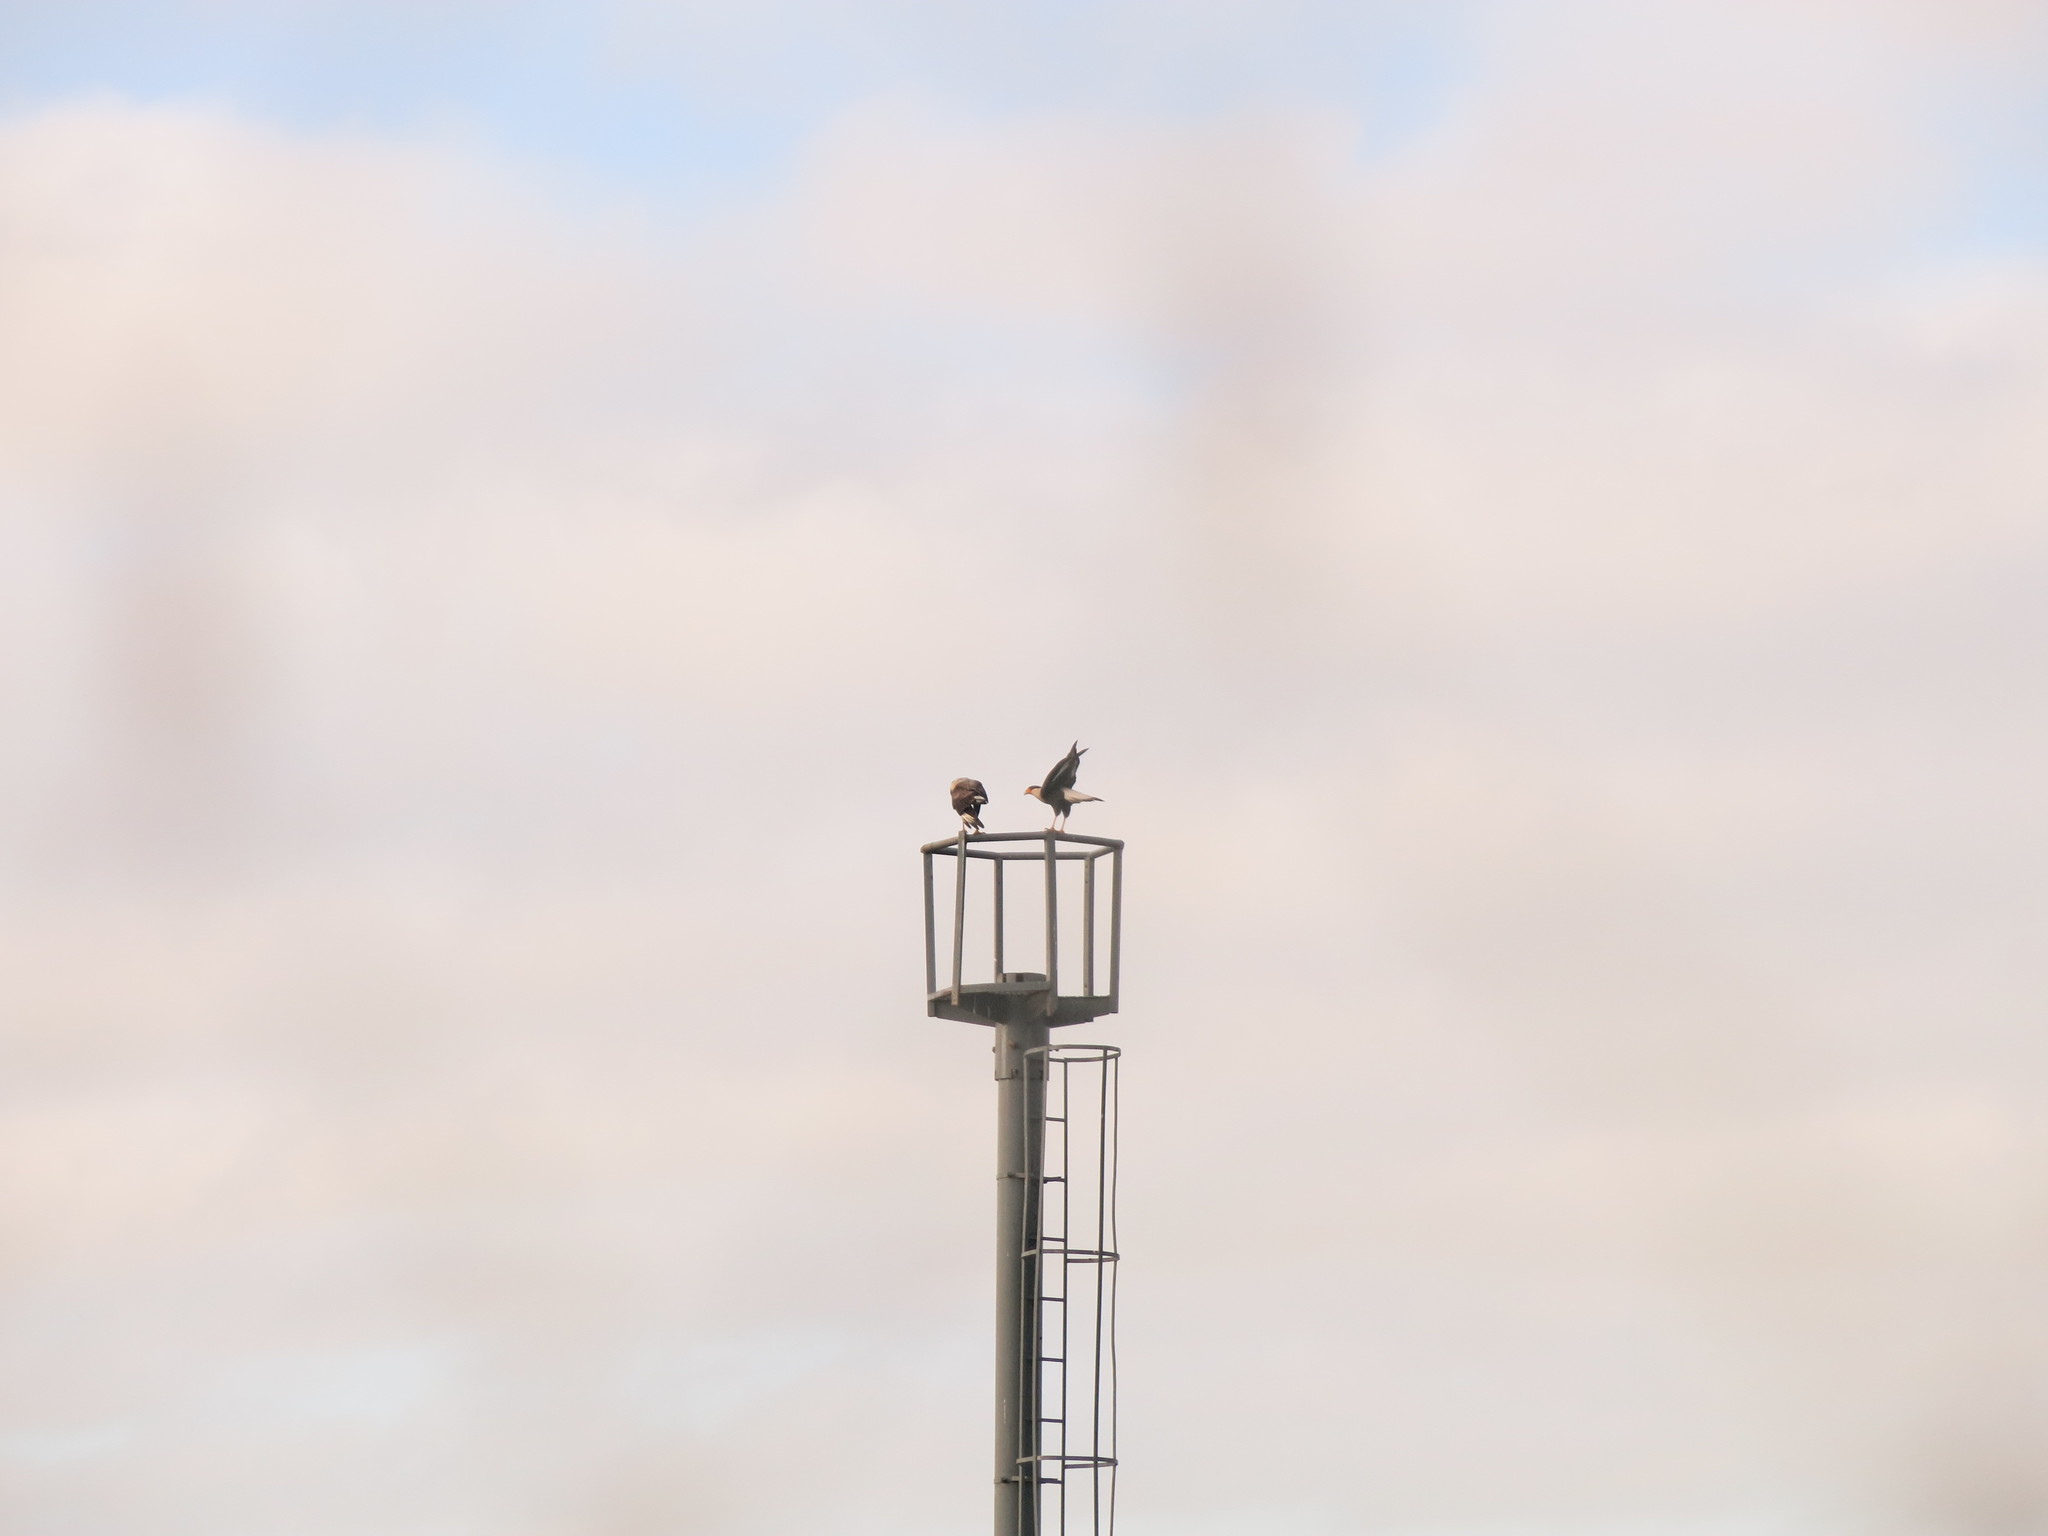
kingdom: Animalia
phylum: Chordata
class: Aves
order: Falconiformes
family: Falconidae
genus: Caracara
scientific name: Caracara plancus
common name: Southern caracara
